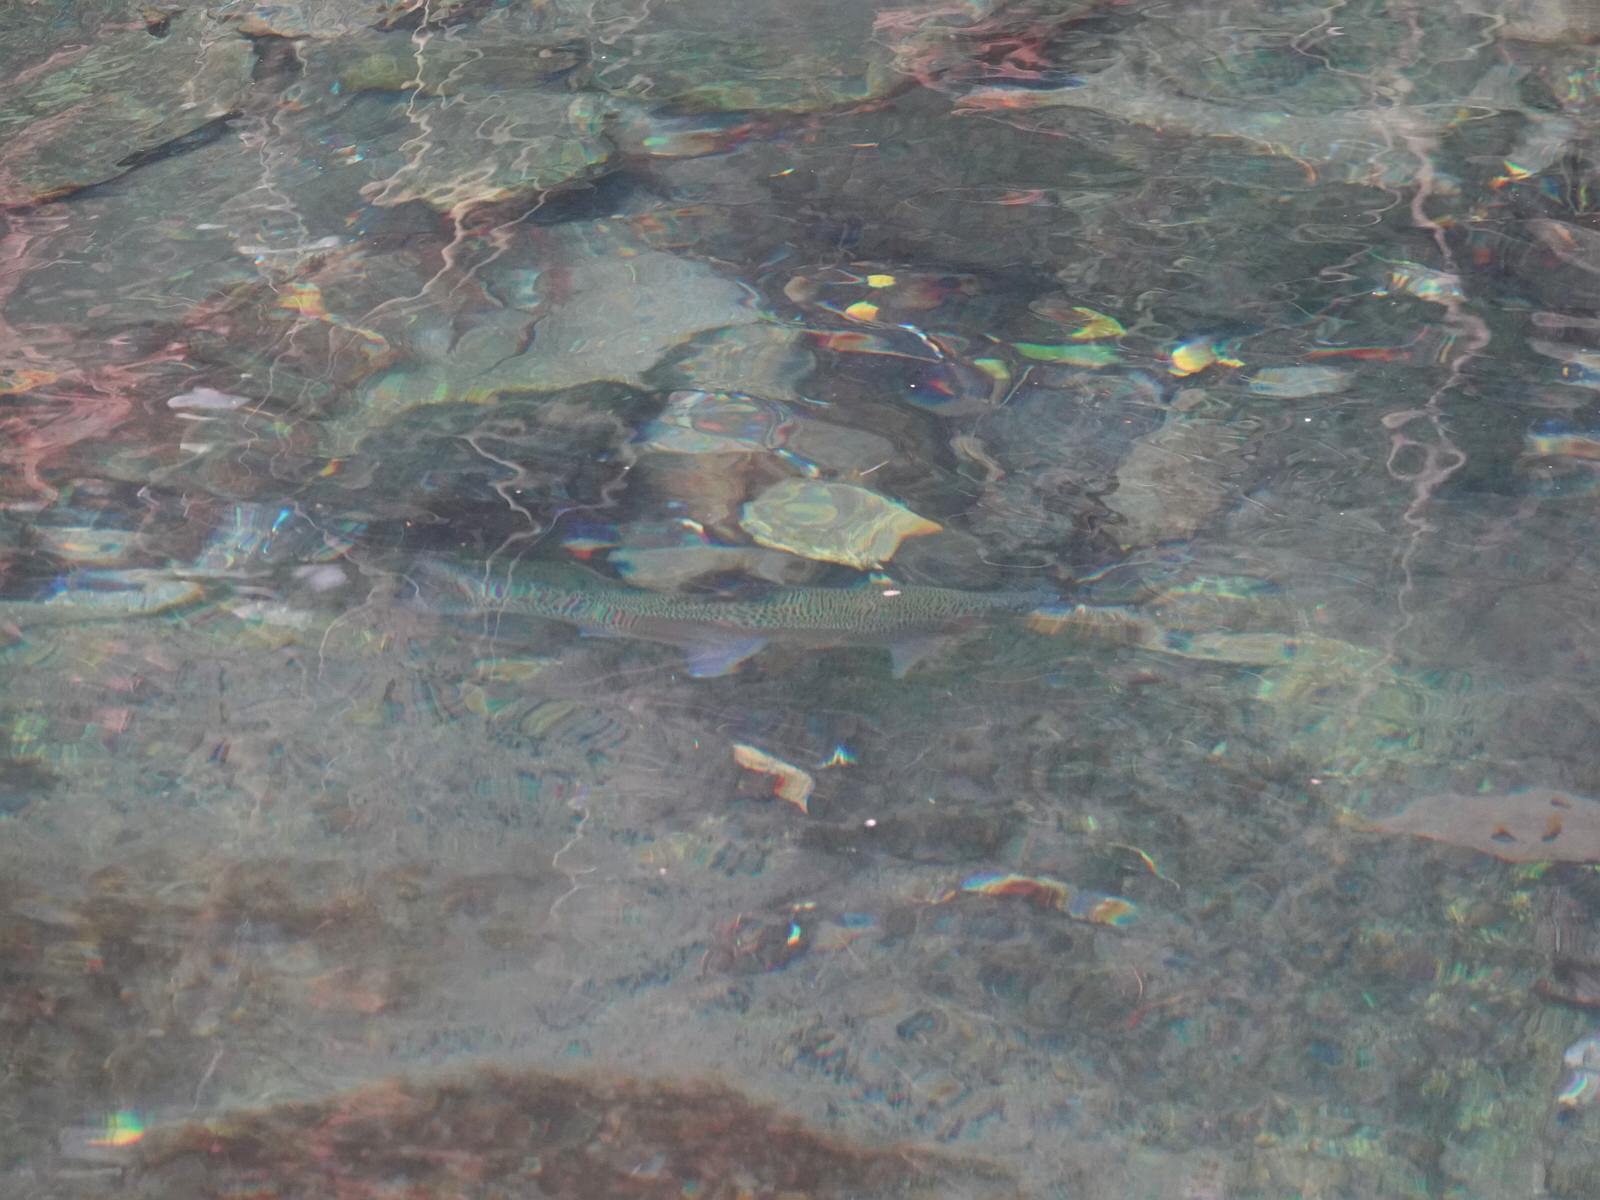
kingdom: Animalia
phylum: Chordata
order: Salmoniformes
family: Salmonidae
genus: Oncorhynchus
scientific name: Oncorhynchus mykiss
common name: Rainbow trout
